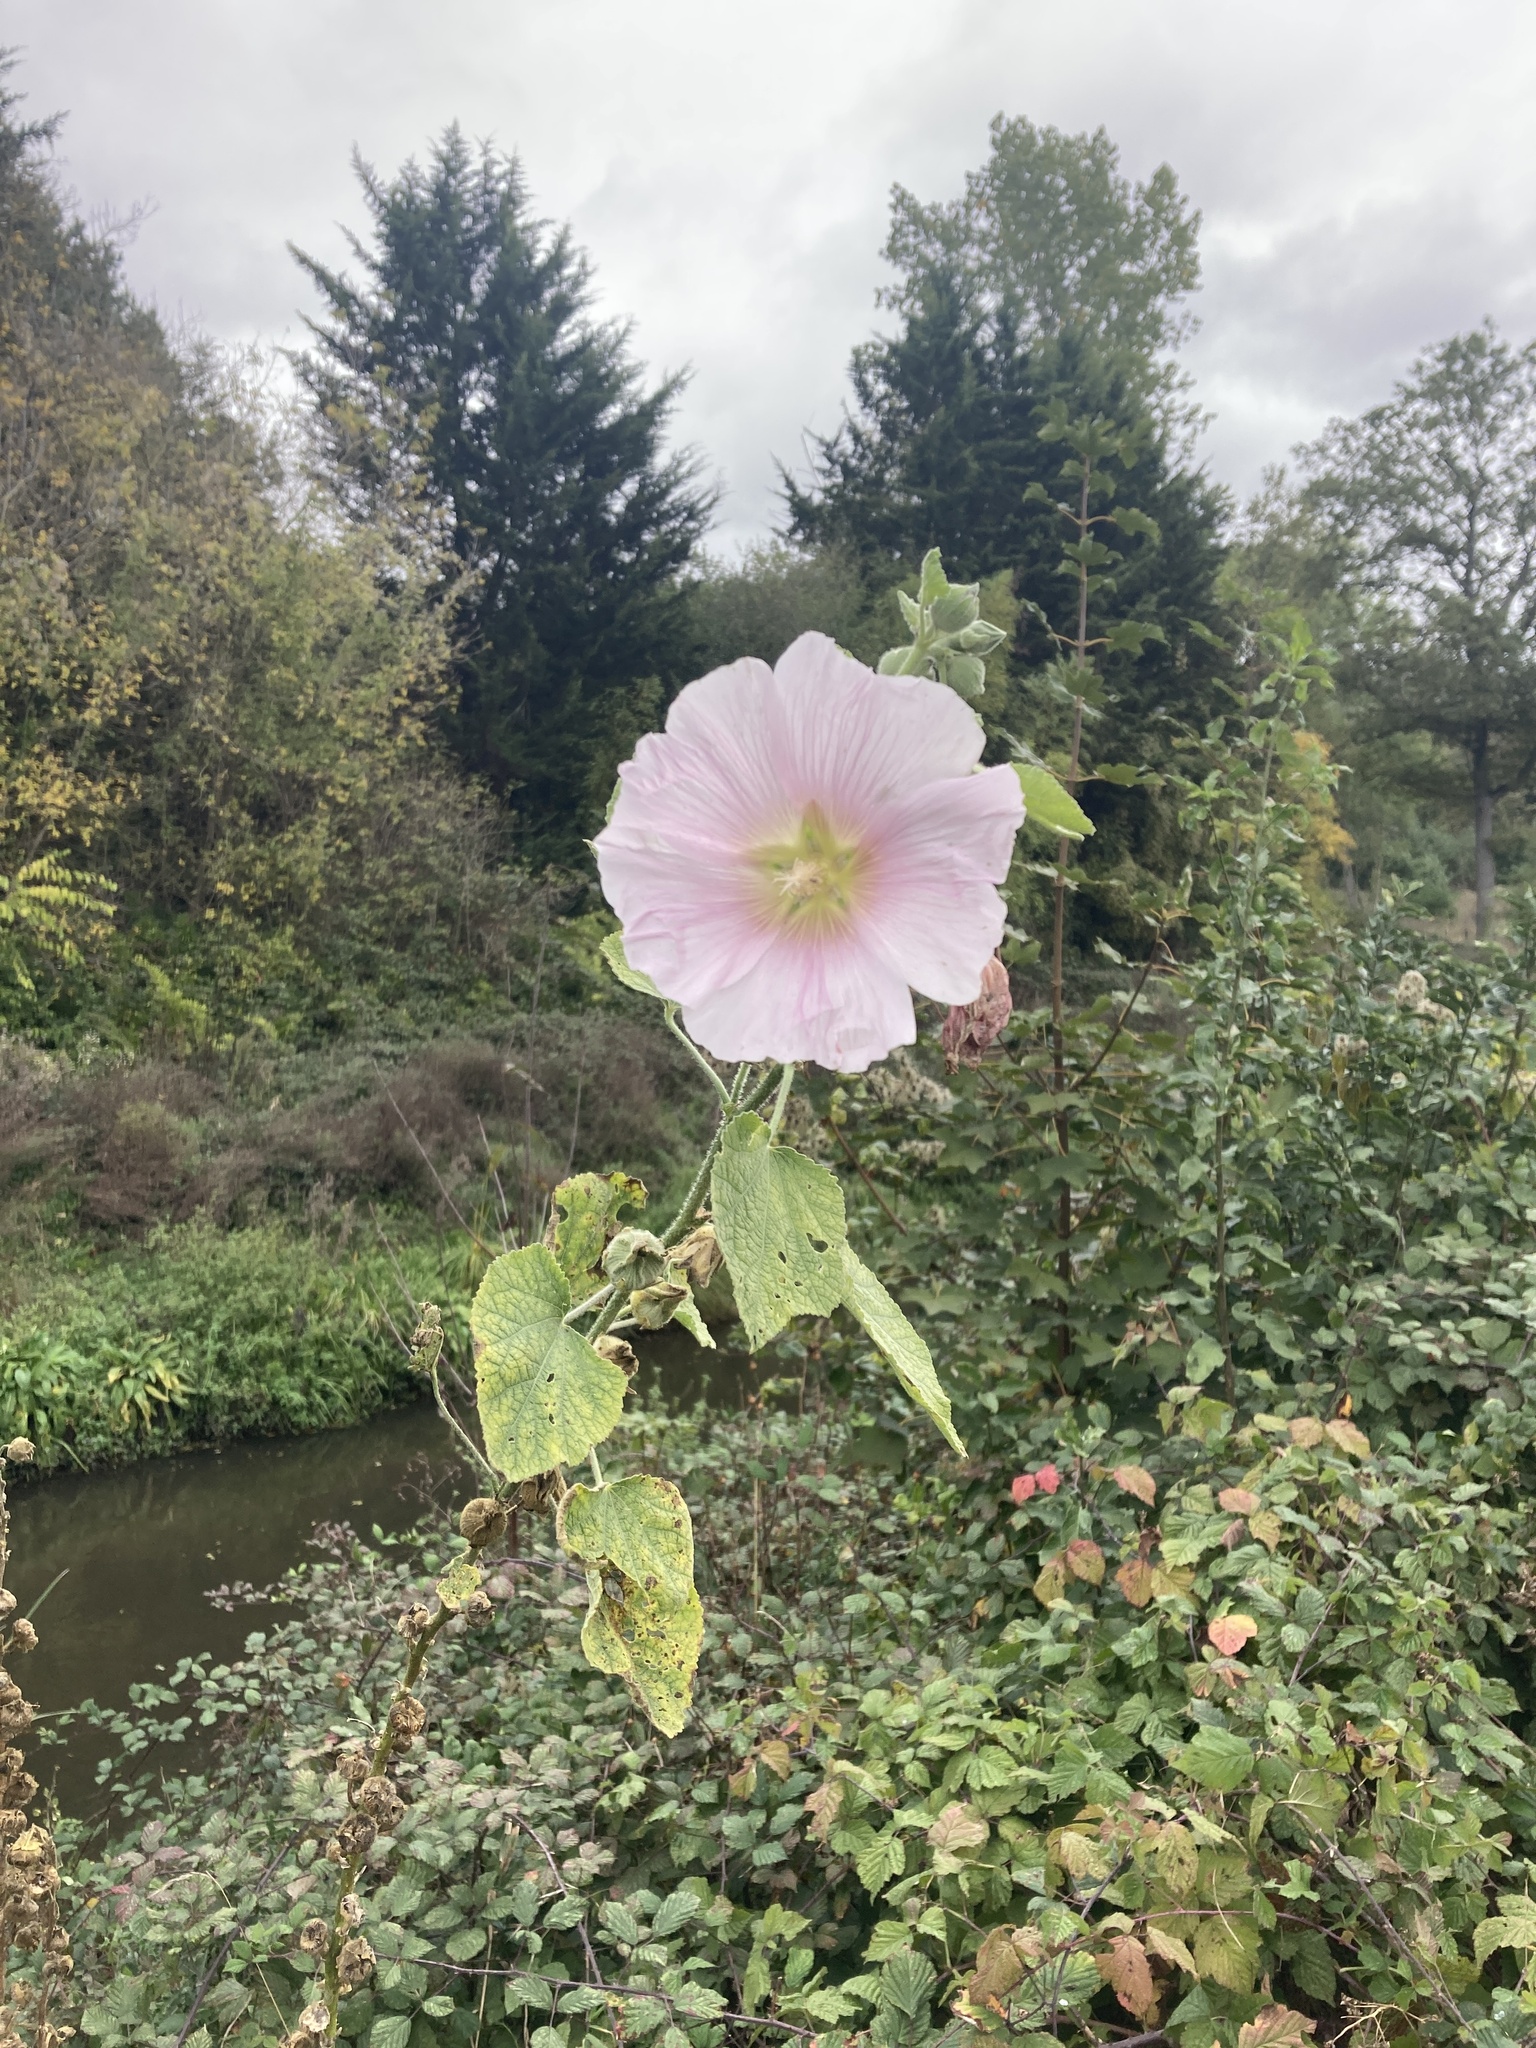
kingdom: Plantae
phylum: Tracheophyta
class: Magnoliopsida
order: Malvales
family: Malvaceae
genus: Alcea
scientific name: Alcea rosea
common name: Hollyhock
